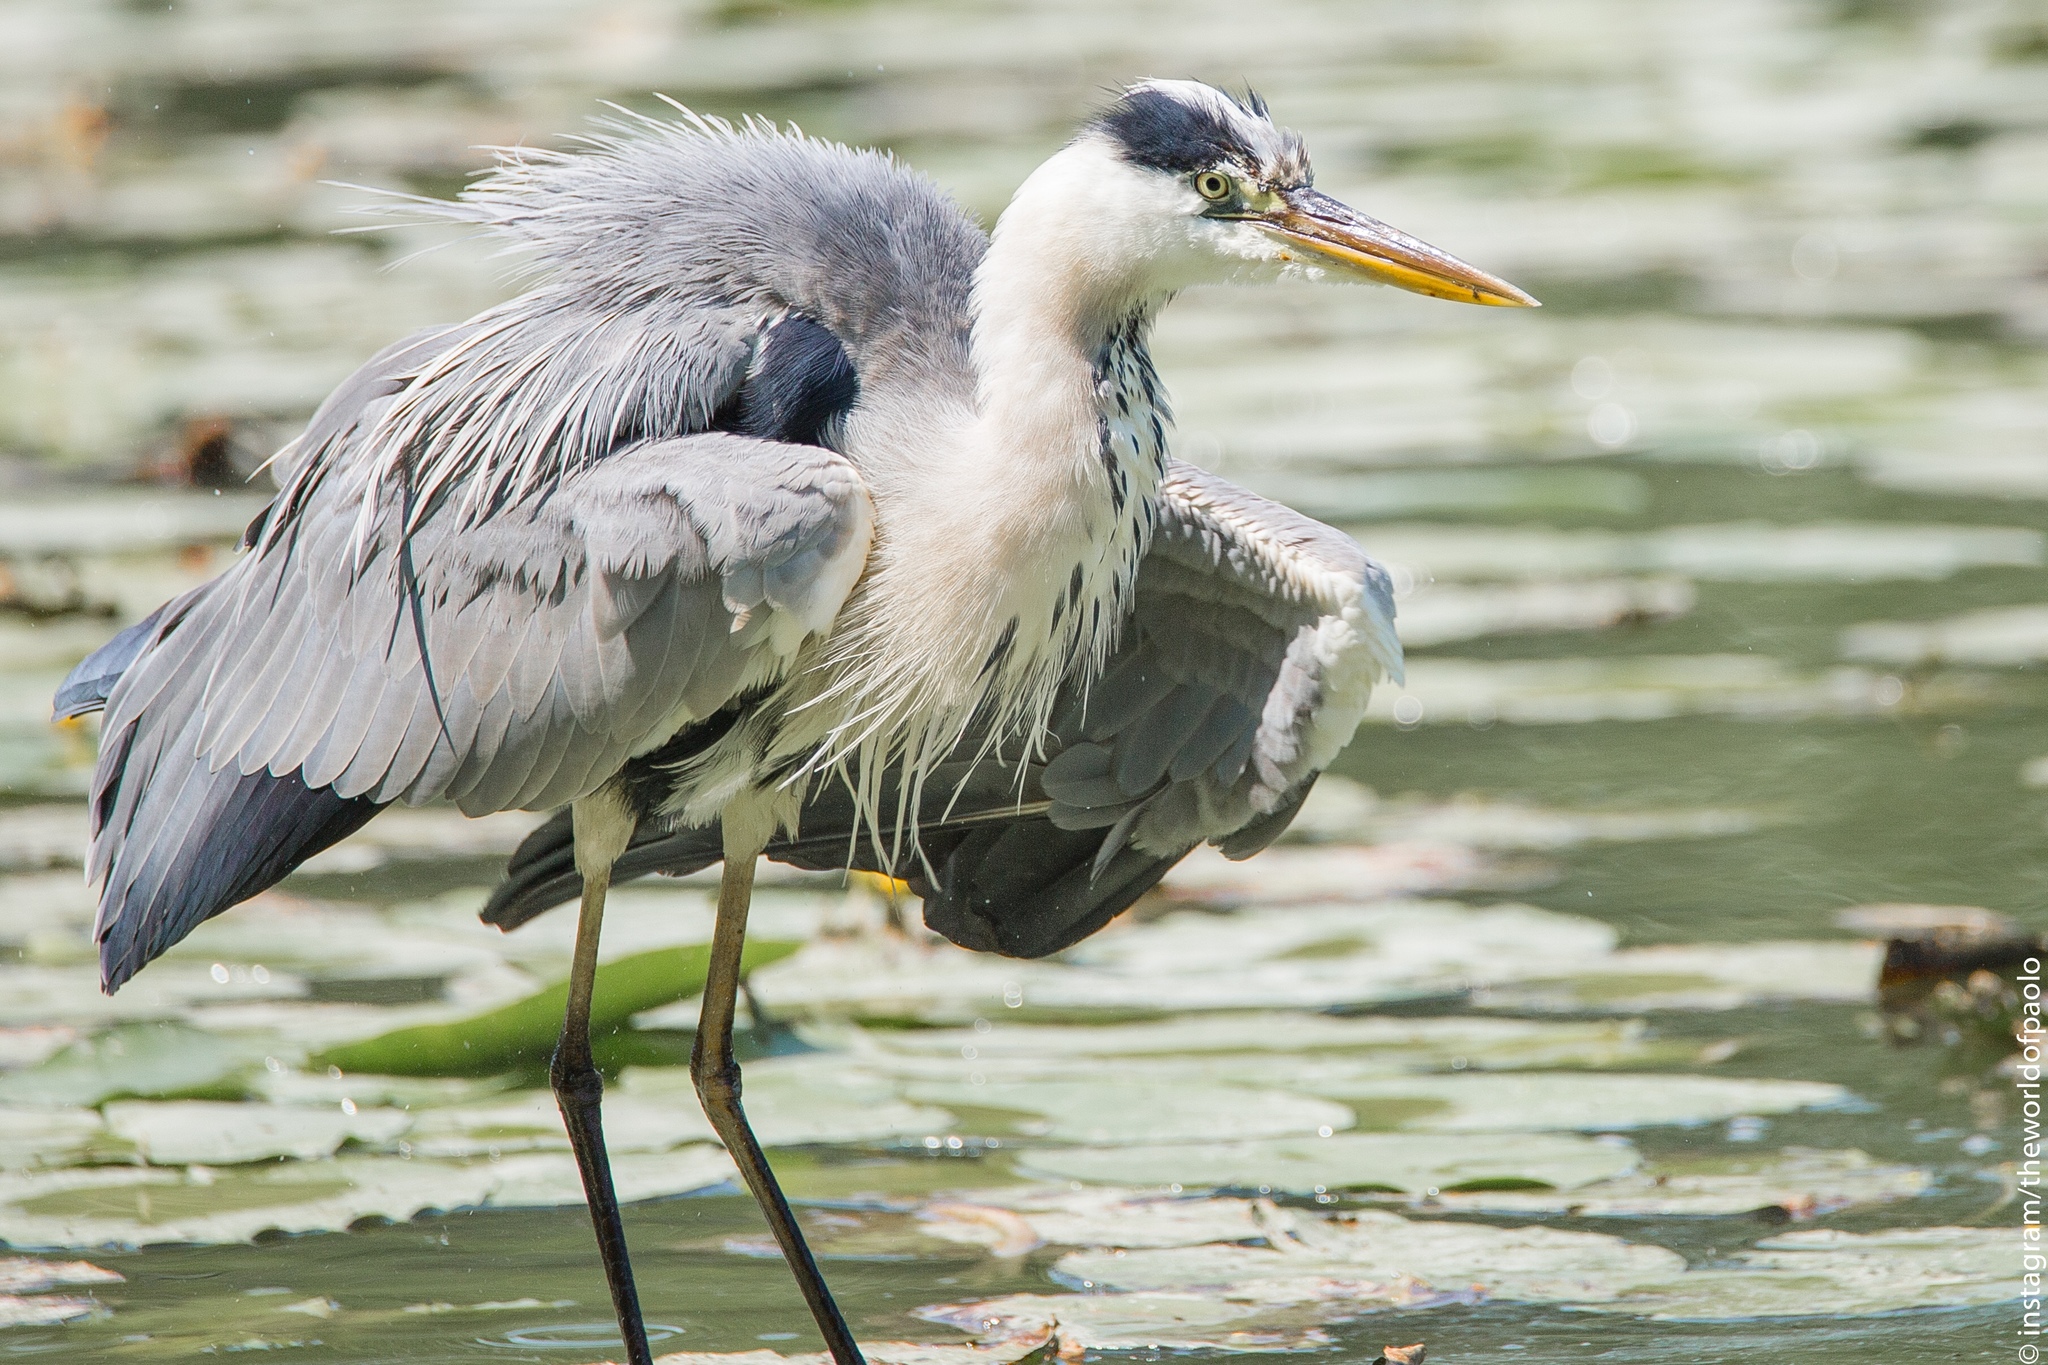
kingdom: Animalia
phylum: Chordata
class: Aves
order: Pelecaniformes
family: Ardeidae
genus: Ardea
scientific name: Ardea cinerea
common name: Grey heron
